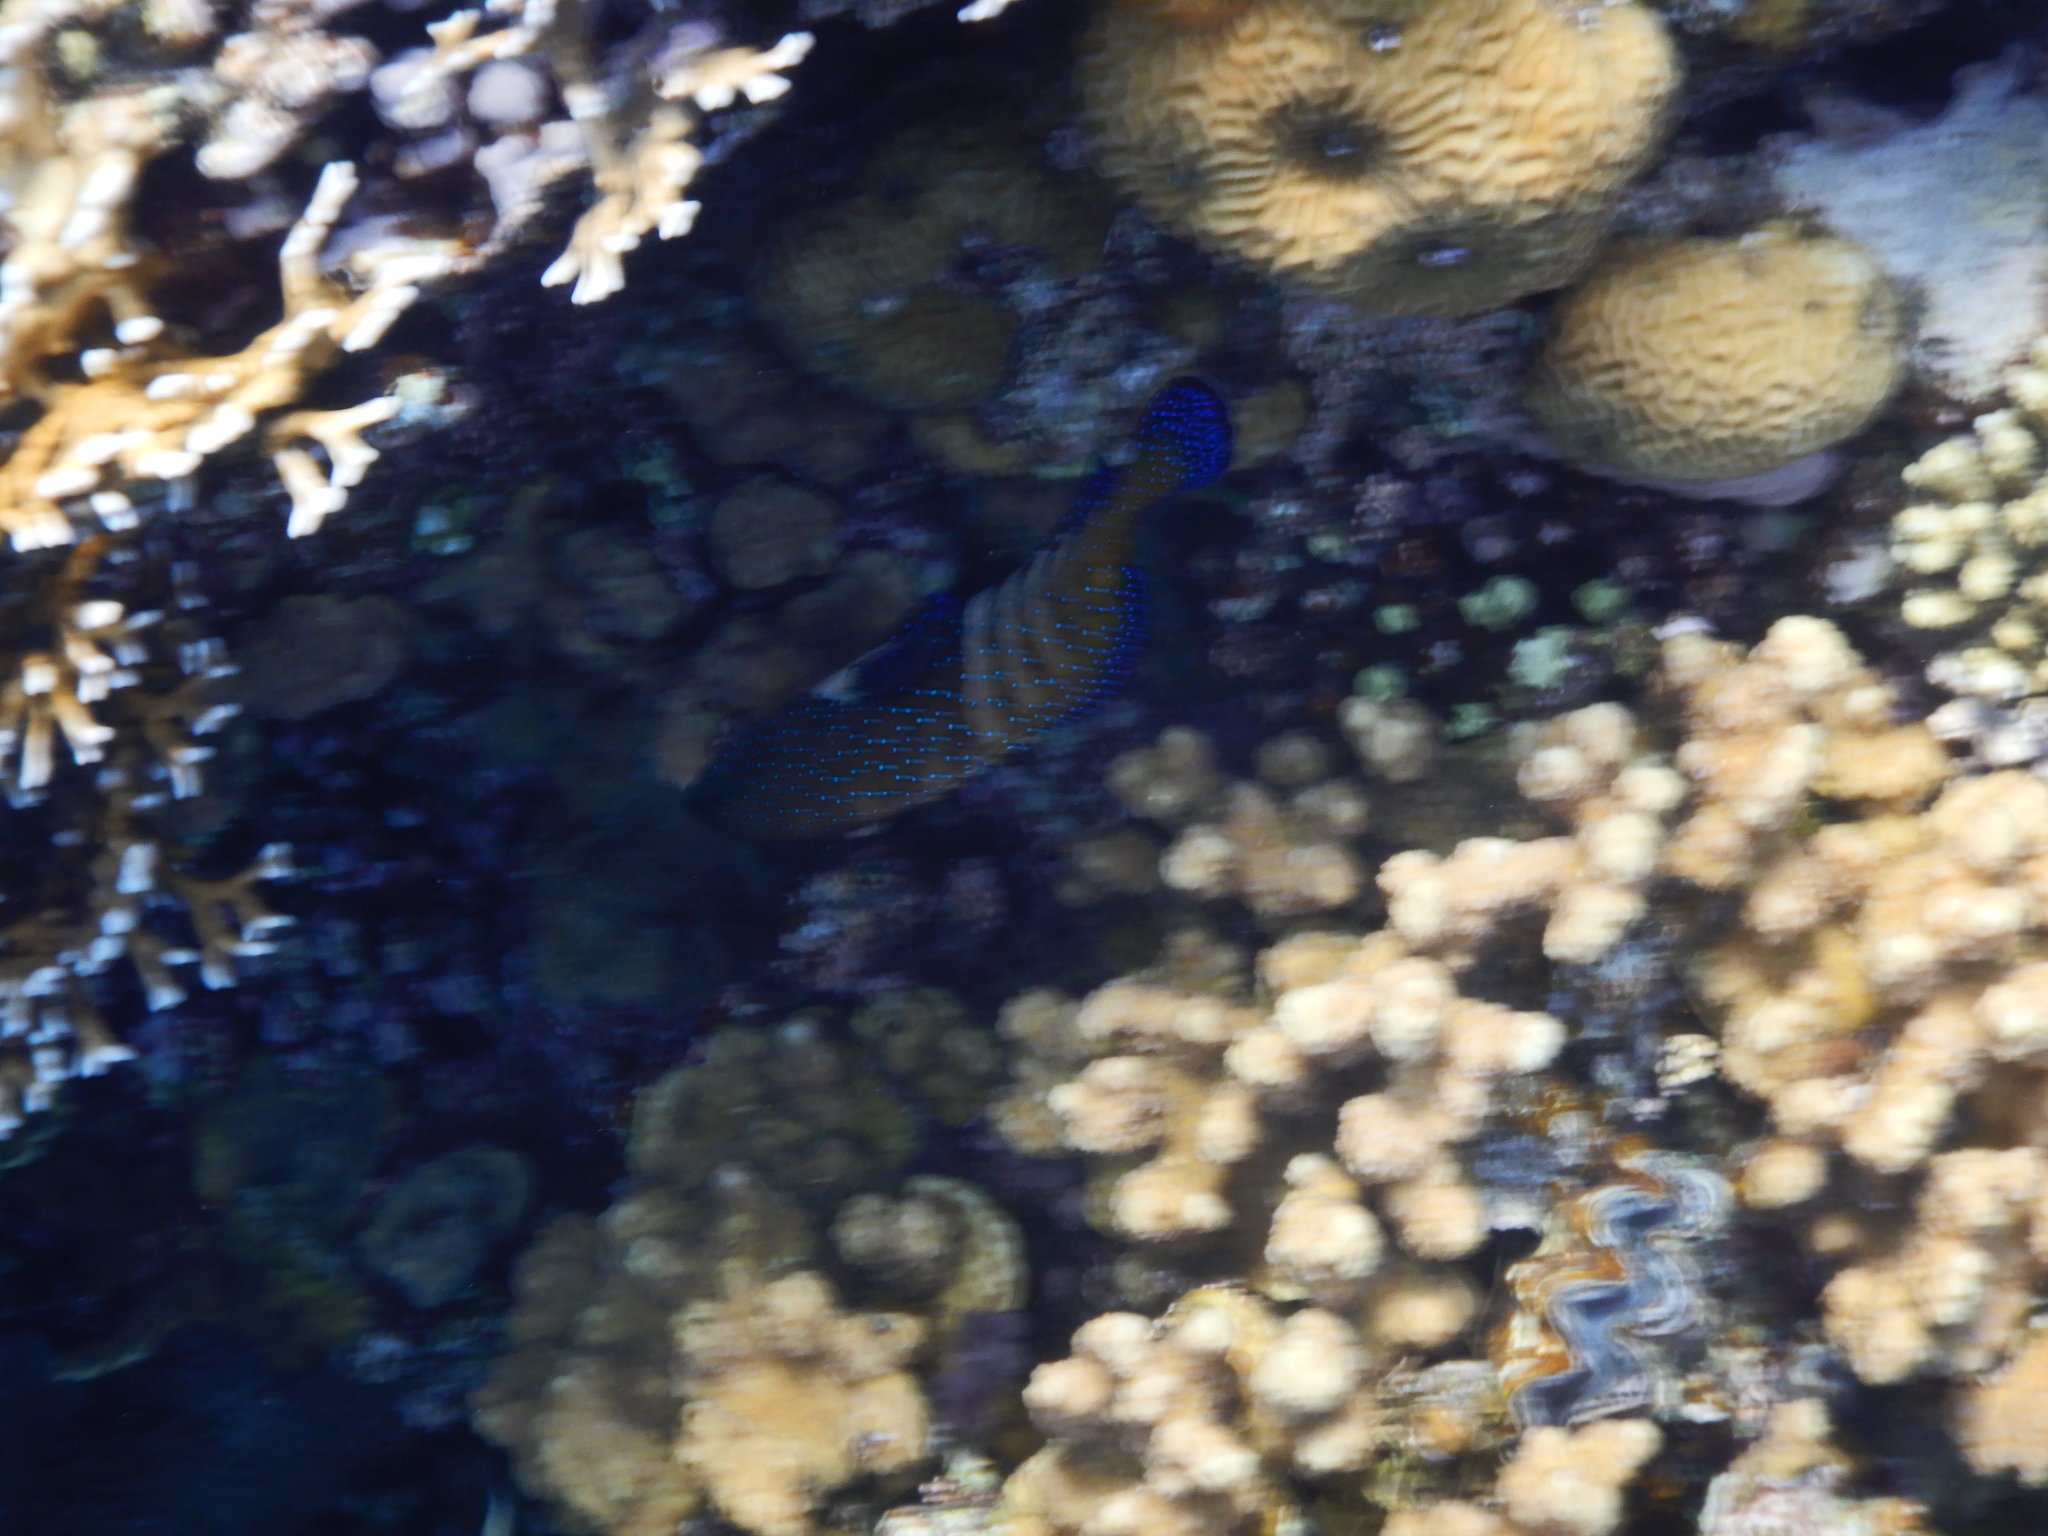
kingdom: Animalia
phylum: Chordata
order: Perciformes
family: Serranidae
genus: Cephalopholis
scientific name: Cephalopholis argus
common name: Peacock grouper
